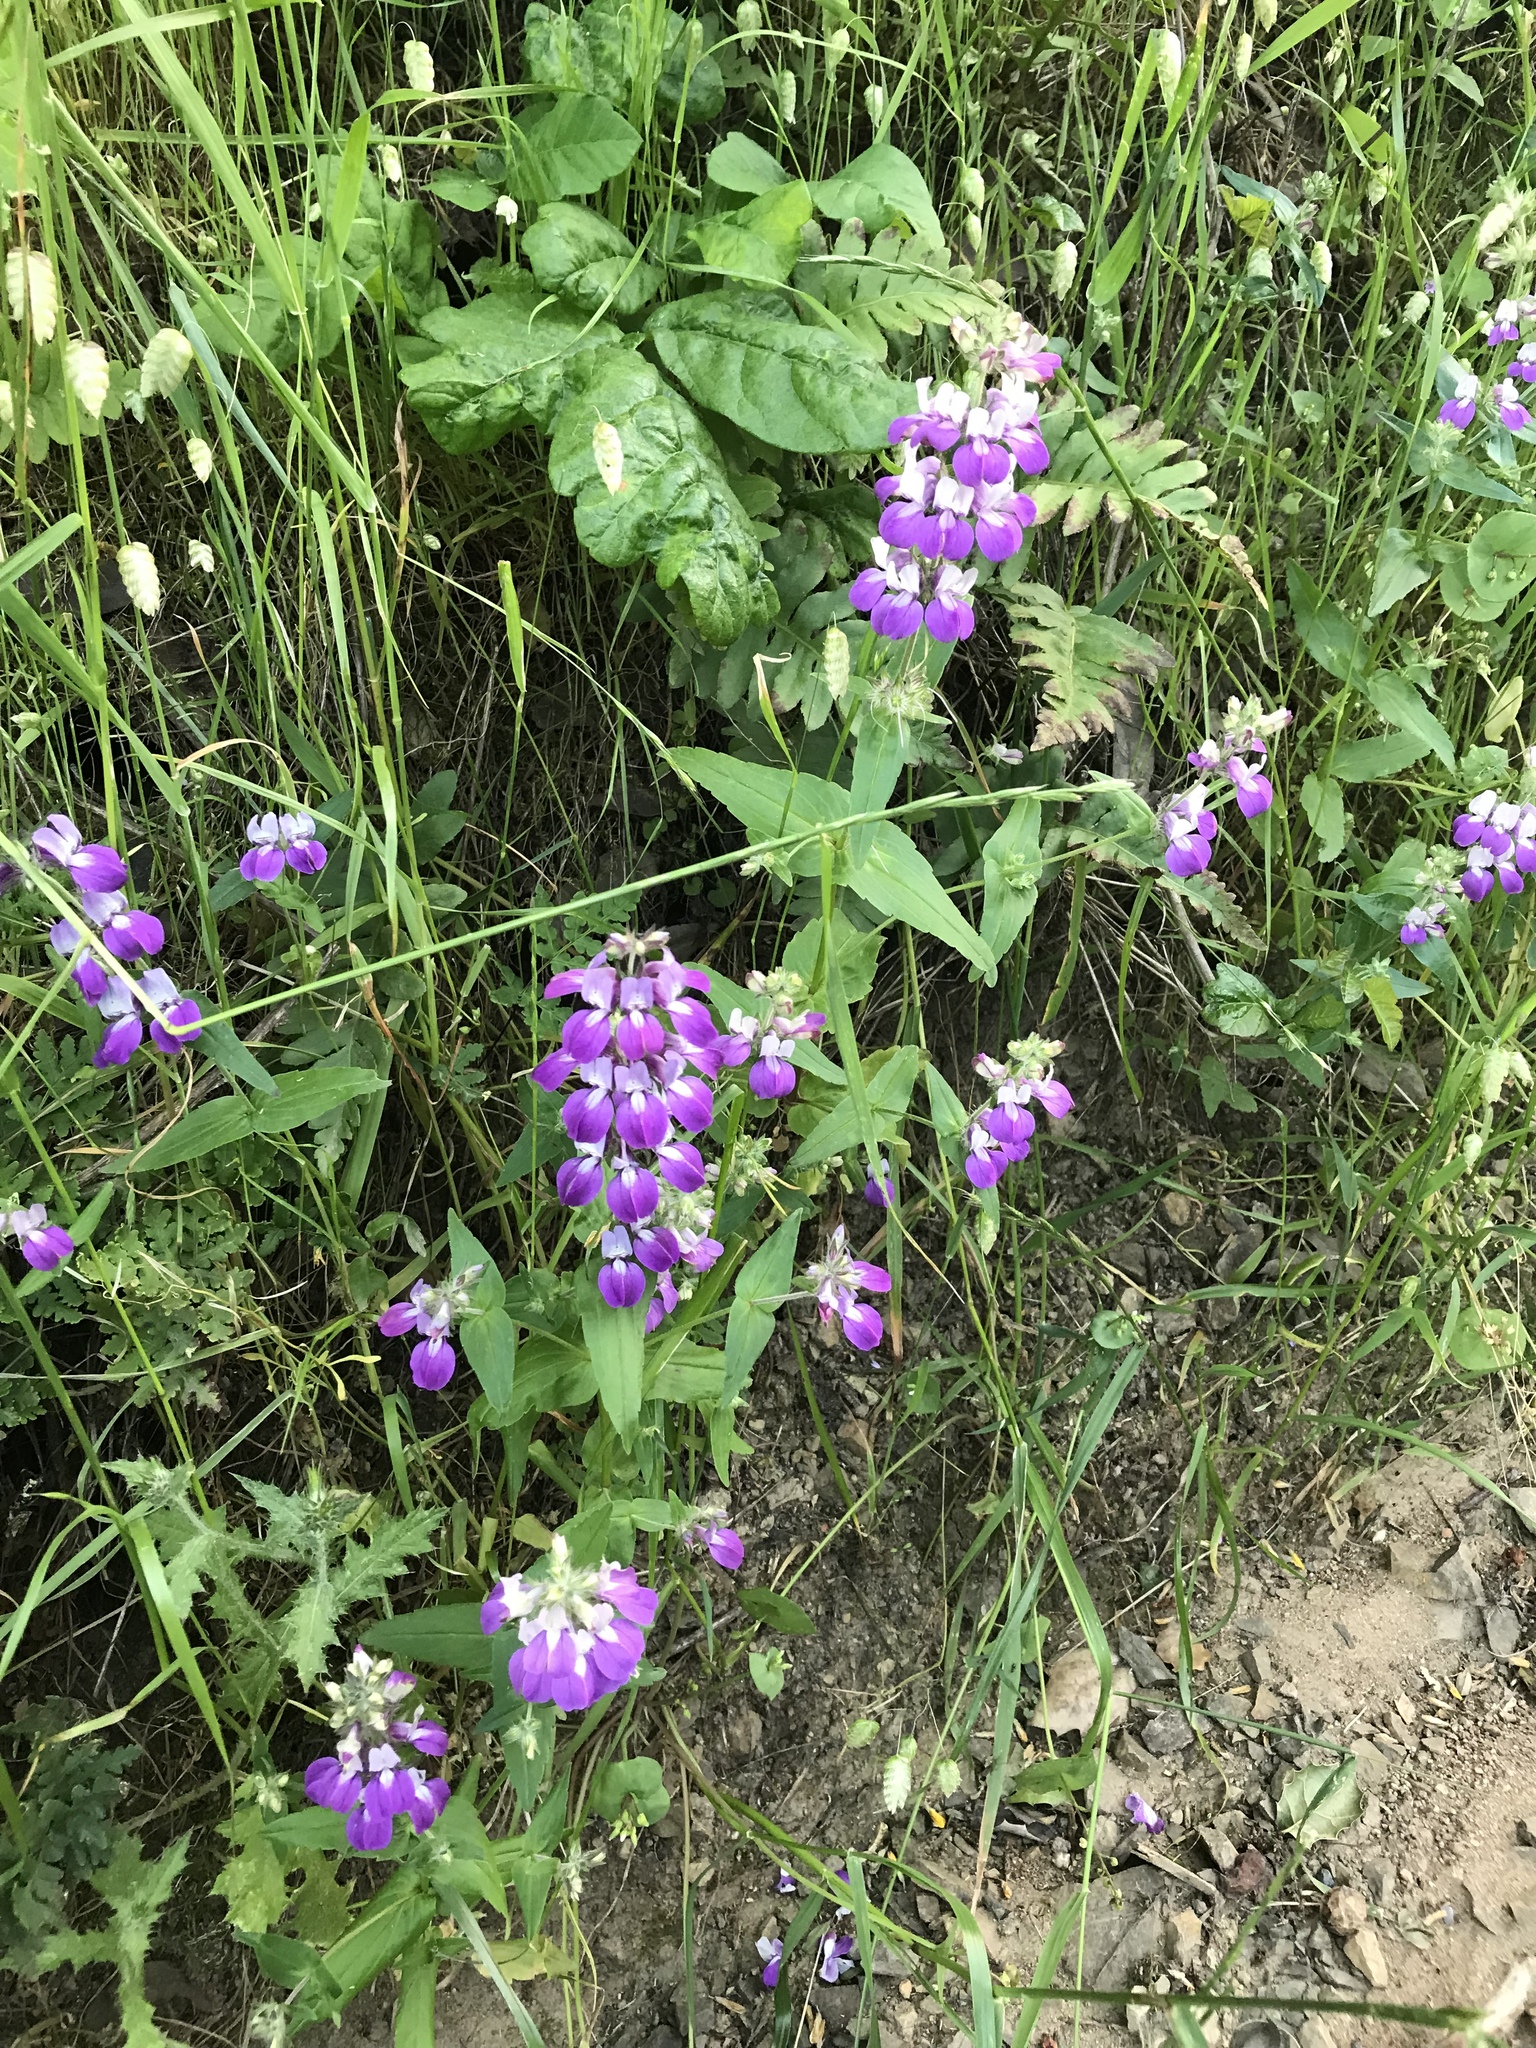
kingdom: Plantae
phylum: Tracheophyta
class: Magnoliopsida
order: Lamiales
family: Plantaginaceae
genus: Collinsia
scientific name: Collinsia heterophylla
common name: Chinese-houses
